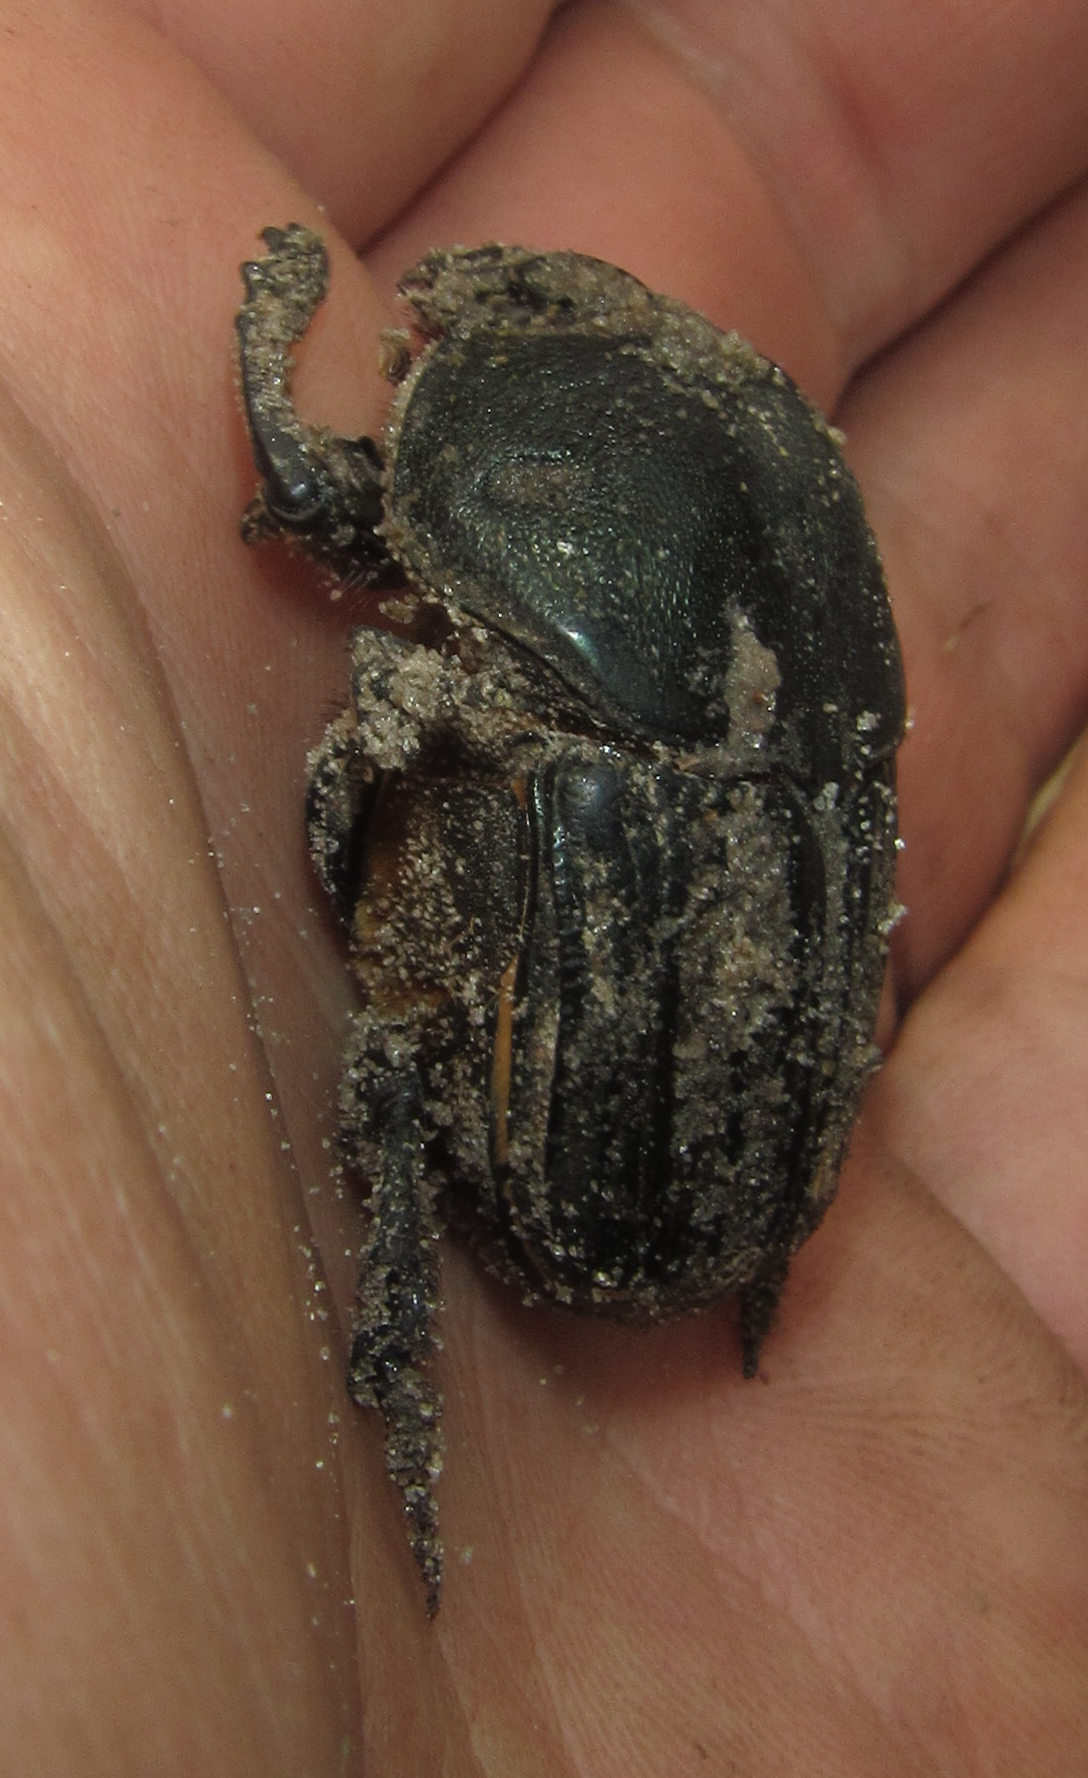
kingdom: Animalia
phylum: Arthropoda
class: Insecta
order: Coleoptera
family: Scarabaeidae
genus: Heteronitis
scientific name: Heteronitis castelnaui
